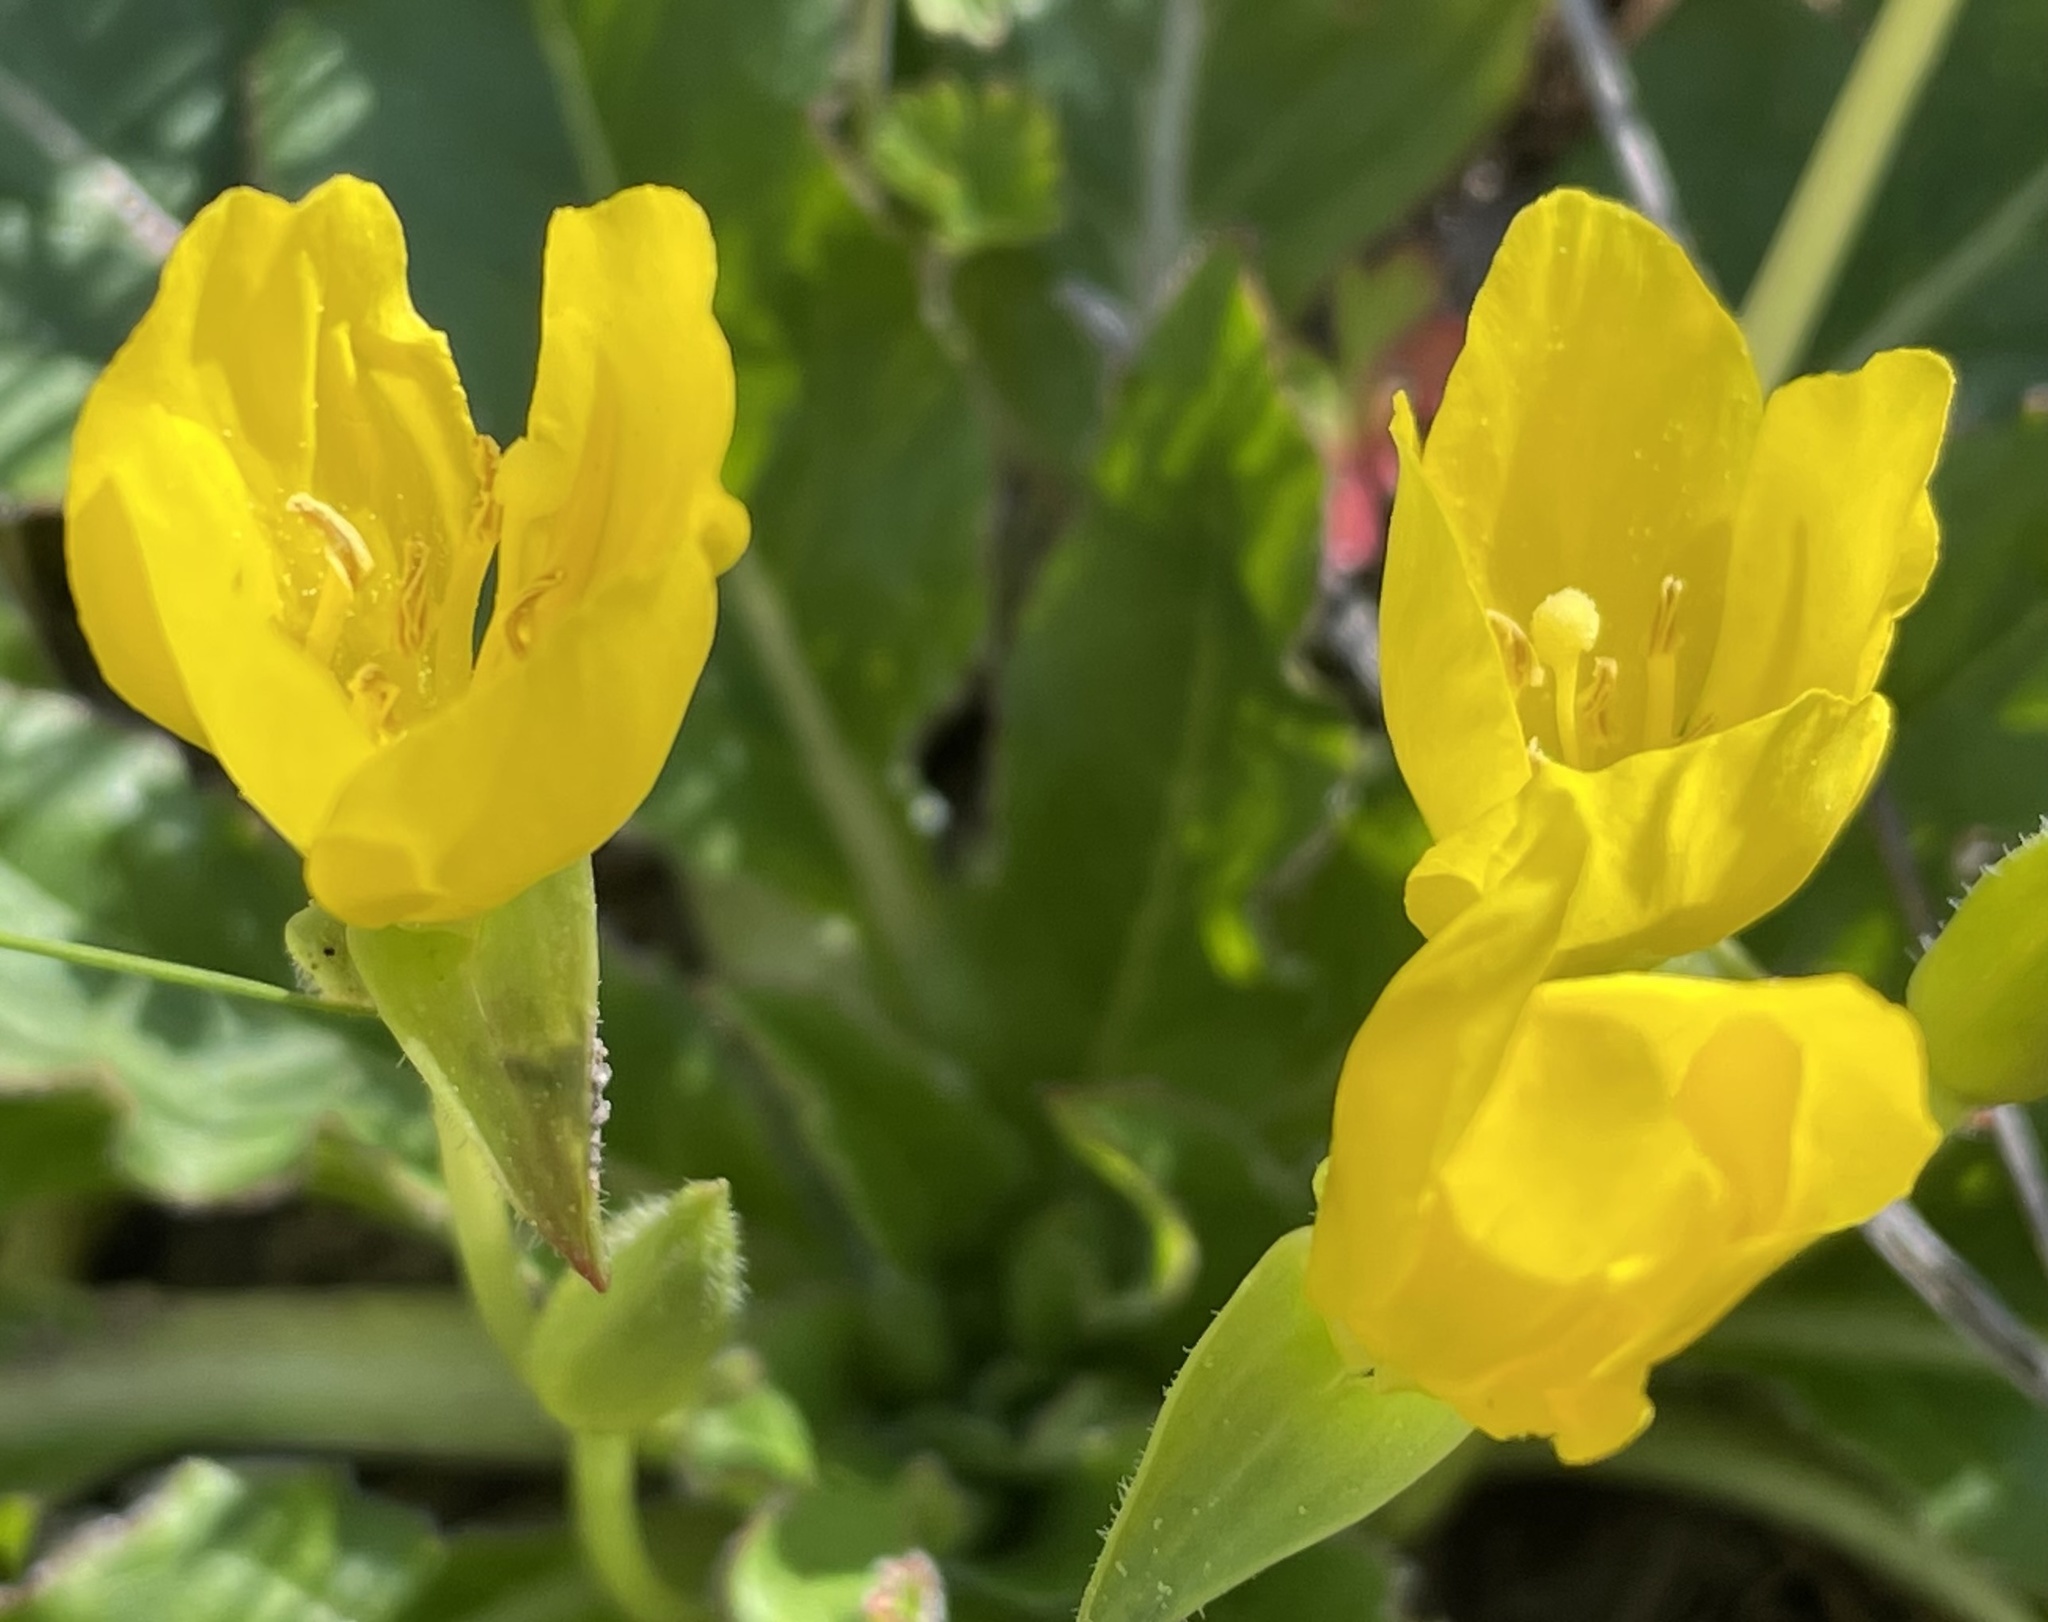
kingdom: Plantae
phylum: Tracheophyta
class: Magnoliopsida
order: Myrtales
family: Onagraceae
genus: Taraxia
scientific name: Taraxia ovata
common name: Goldeneggs
